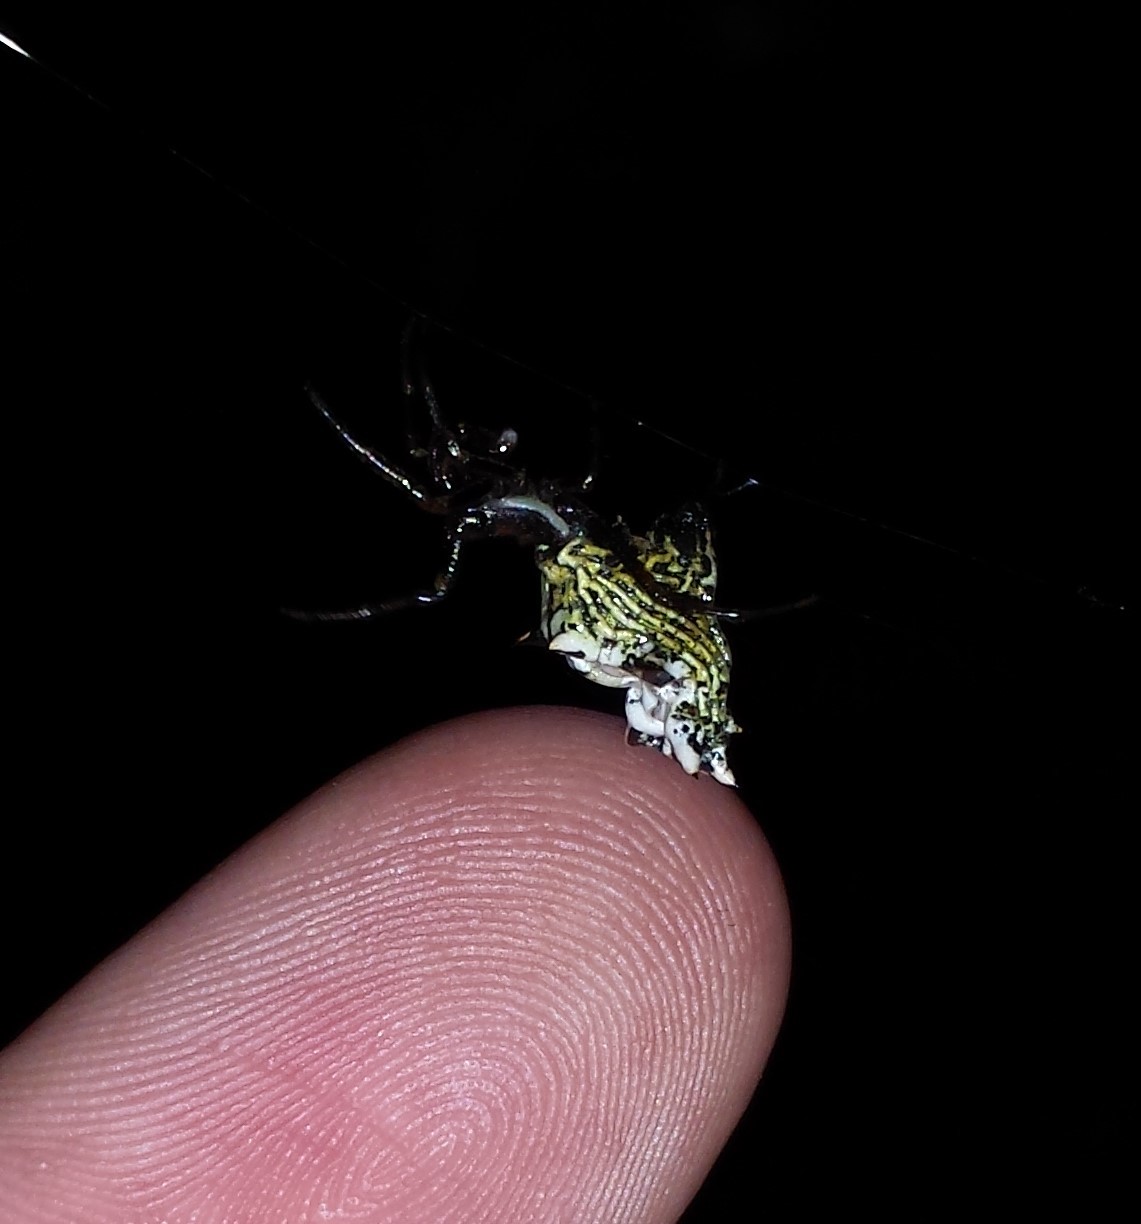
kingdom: Animalia
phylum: Arthropoda
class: Arachnida
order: Araneae
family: Araneidae
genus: Micrathena
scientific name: Micrathena gracilis
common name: Orb weavers
